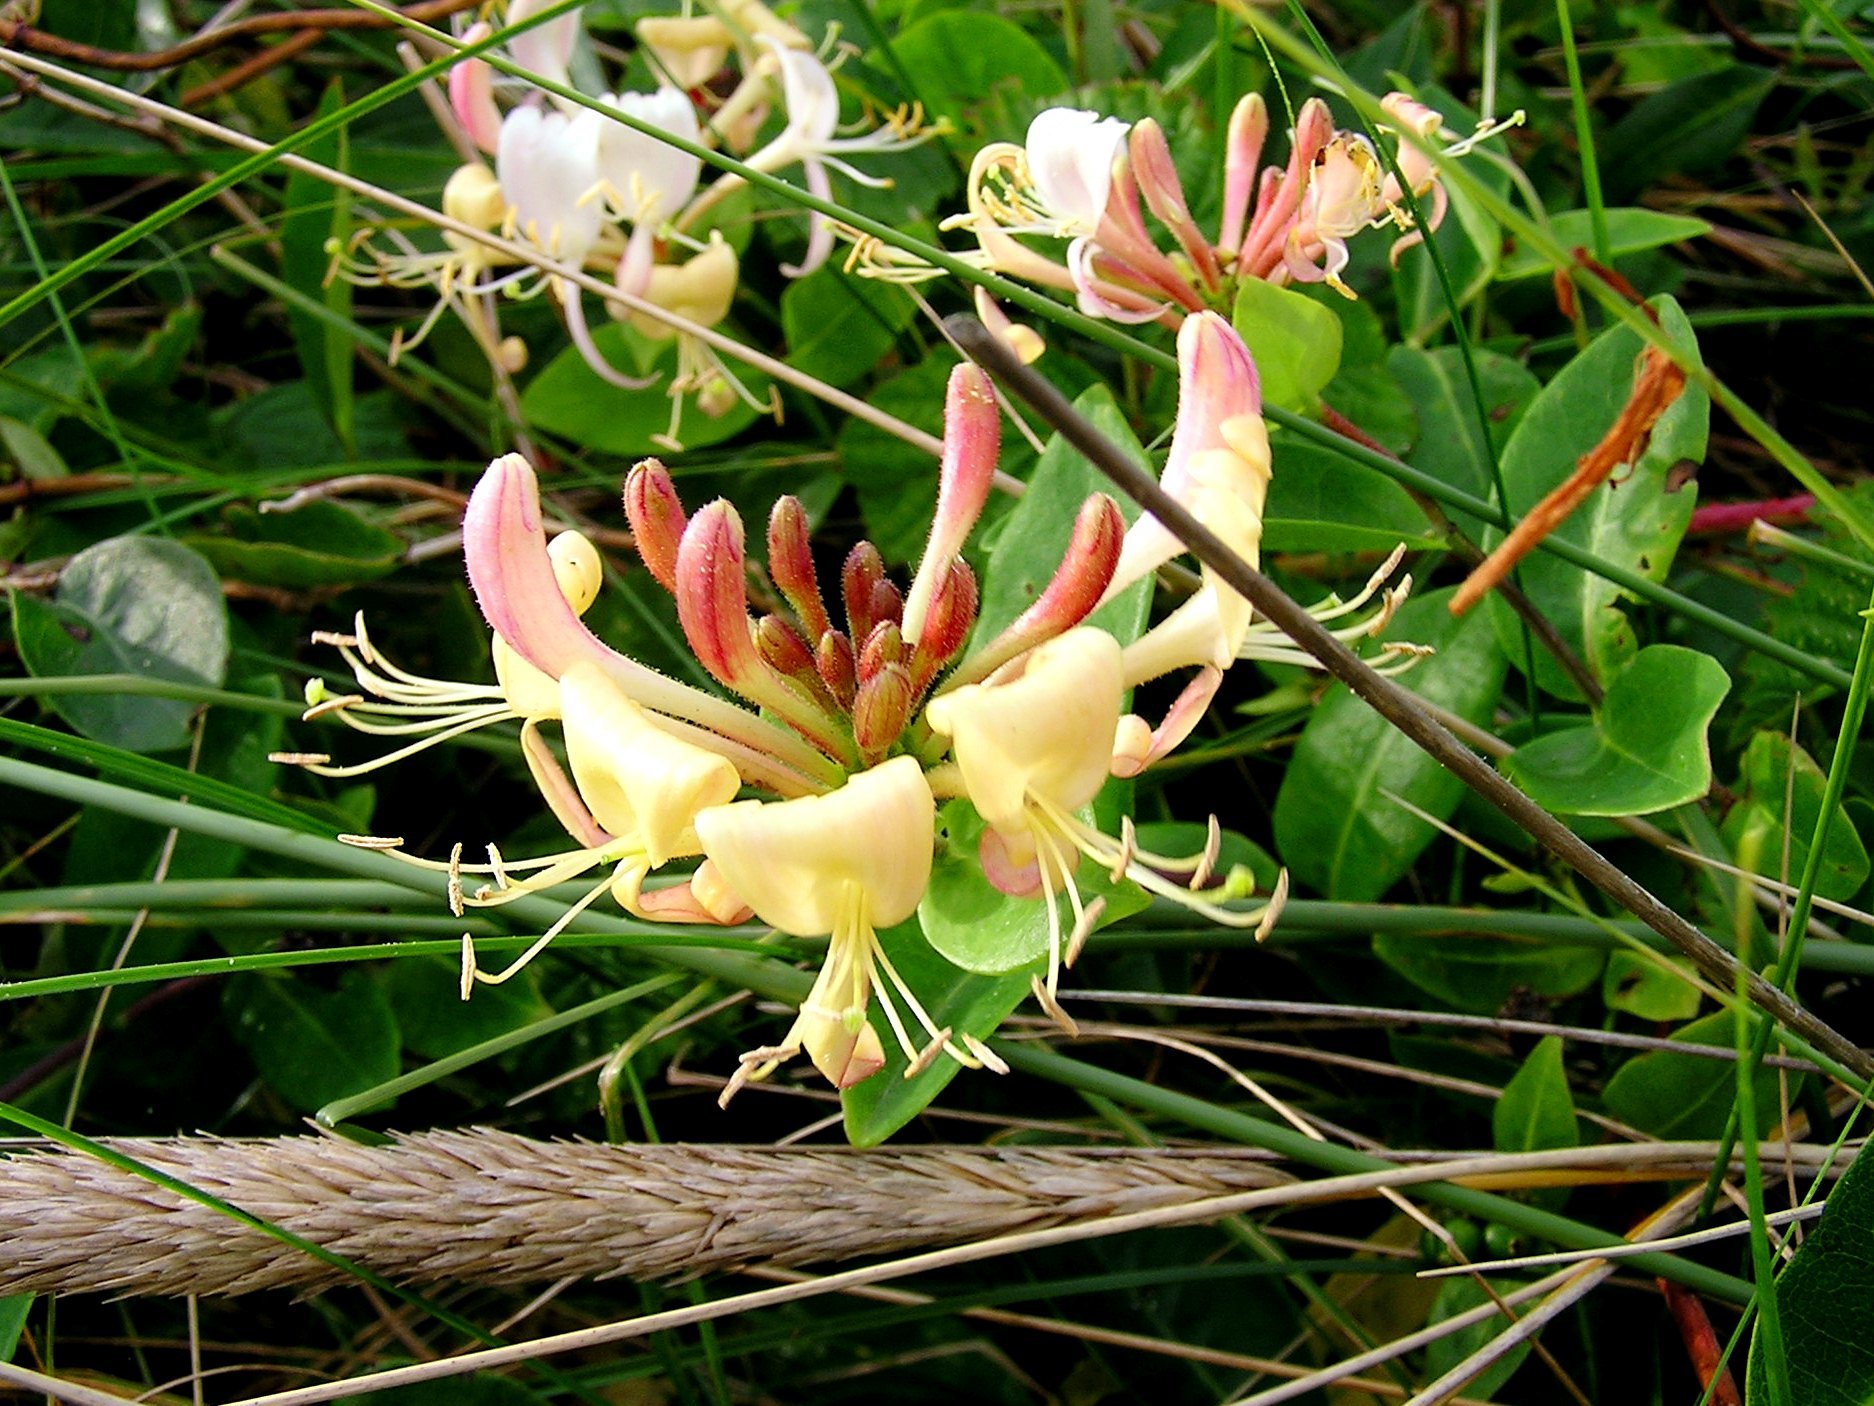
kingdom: Plantae
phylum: Tracheophyta
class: Magnoliopsida
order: Dipsacales
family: Caprifoliaceae
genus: Lonicera
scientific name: Lonicera periclymenum
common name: European honeysuckle
